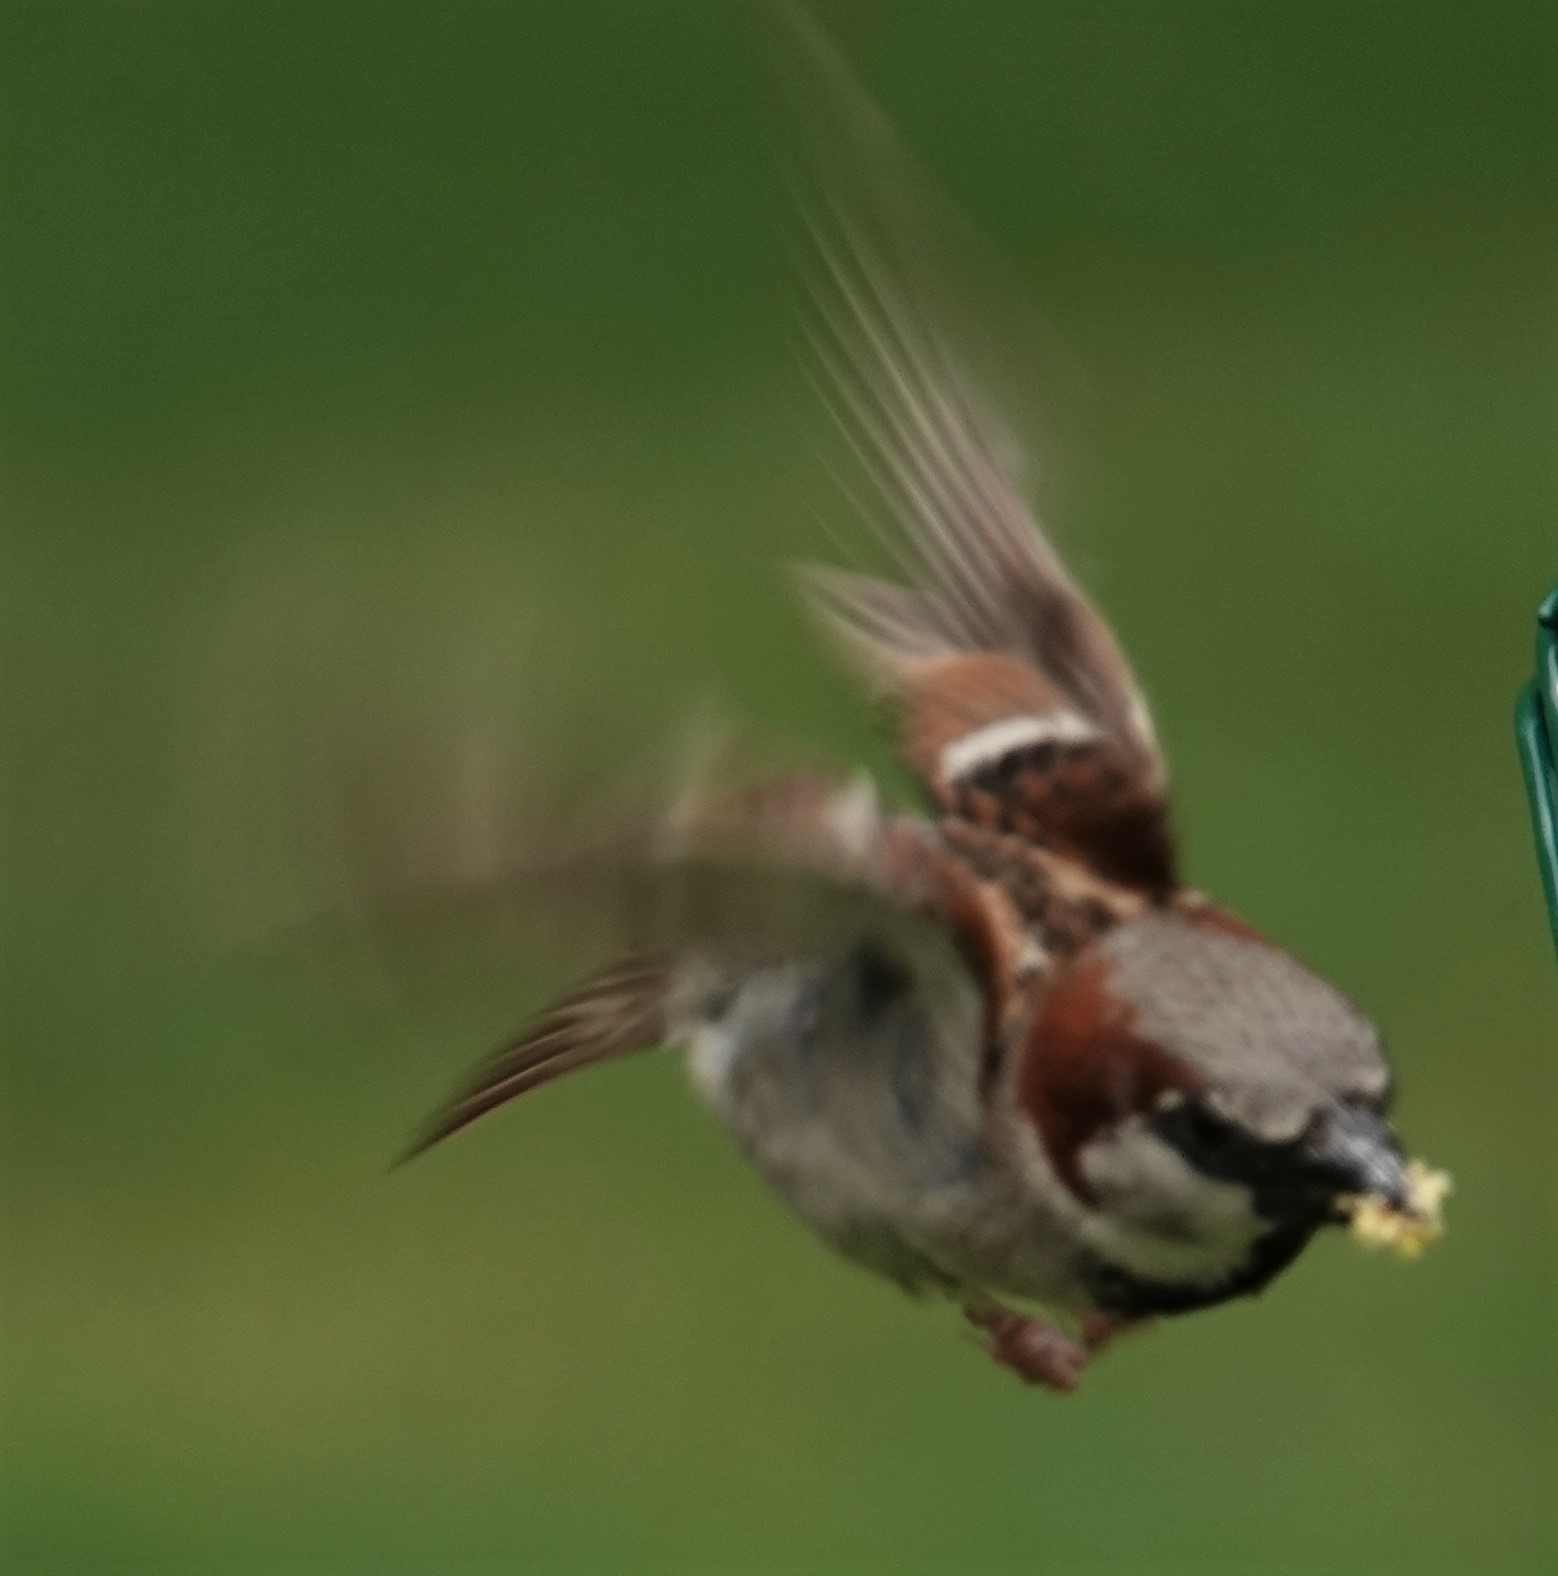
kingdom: Animalia
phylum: Chordata
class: Aves
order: Passeriformes
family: Passeridae
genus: Passer
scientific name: Passer domesticus
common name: House sparrow
